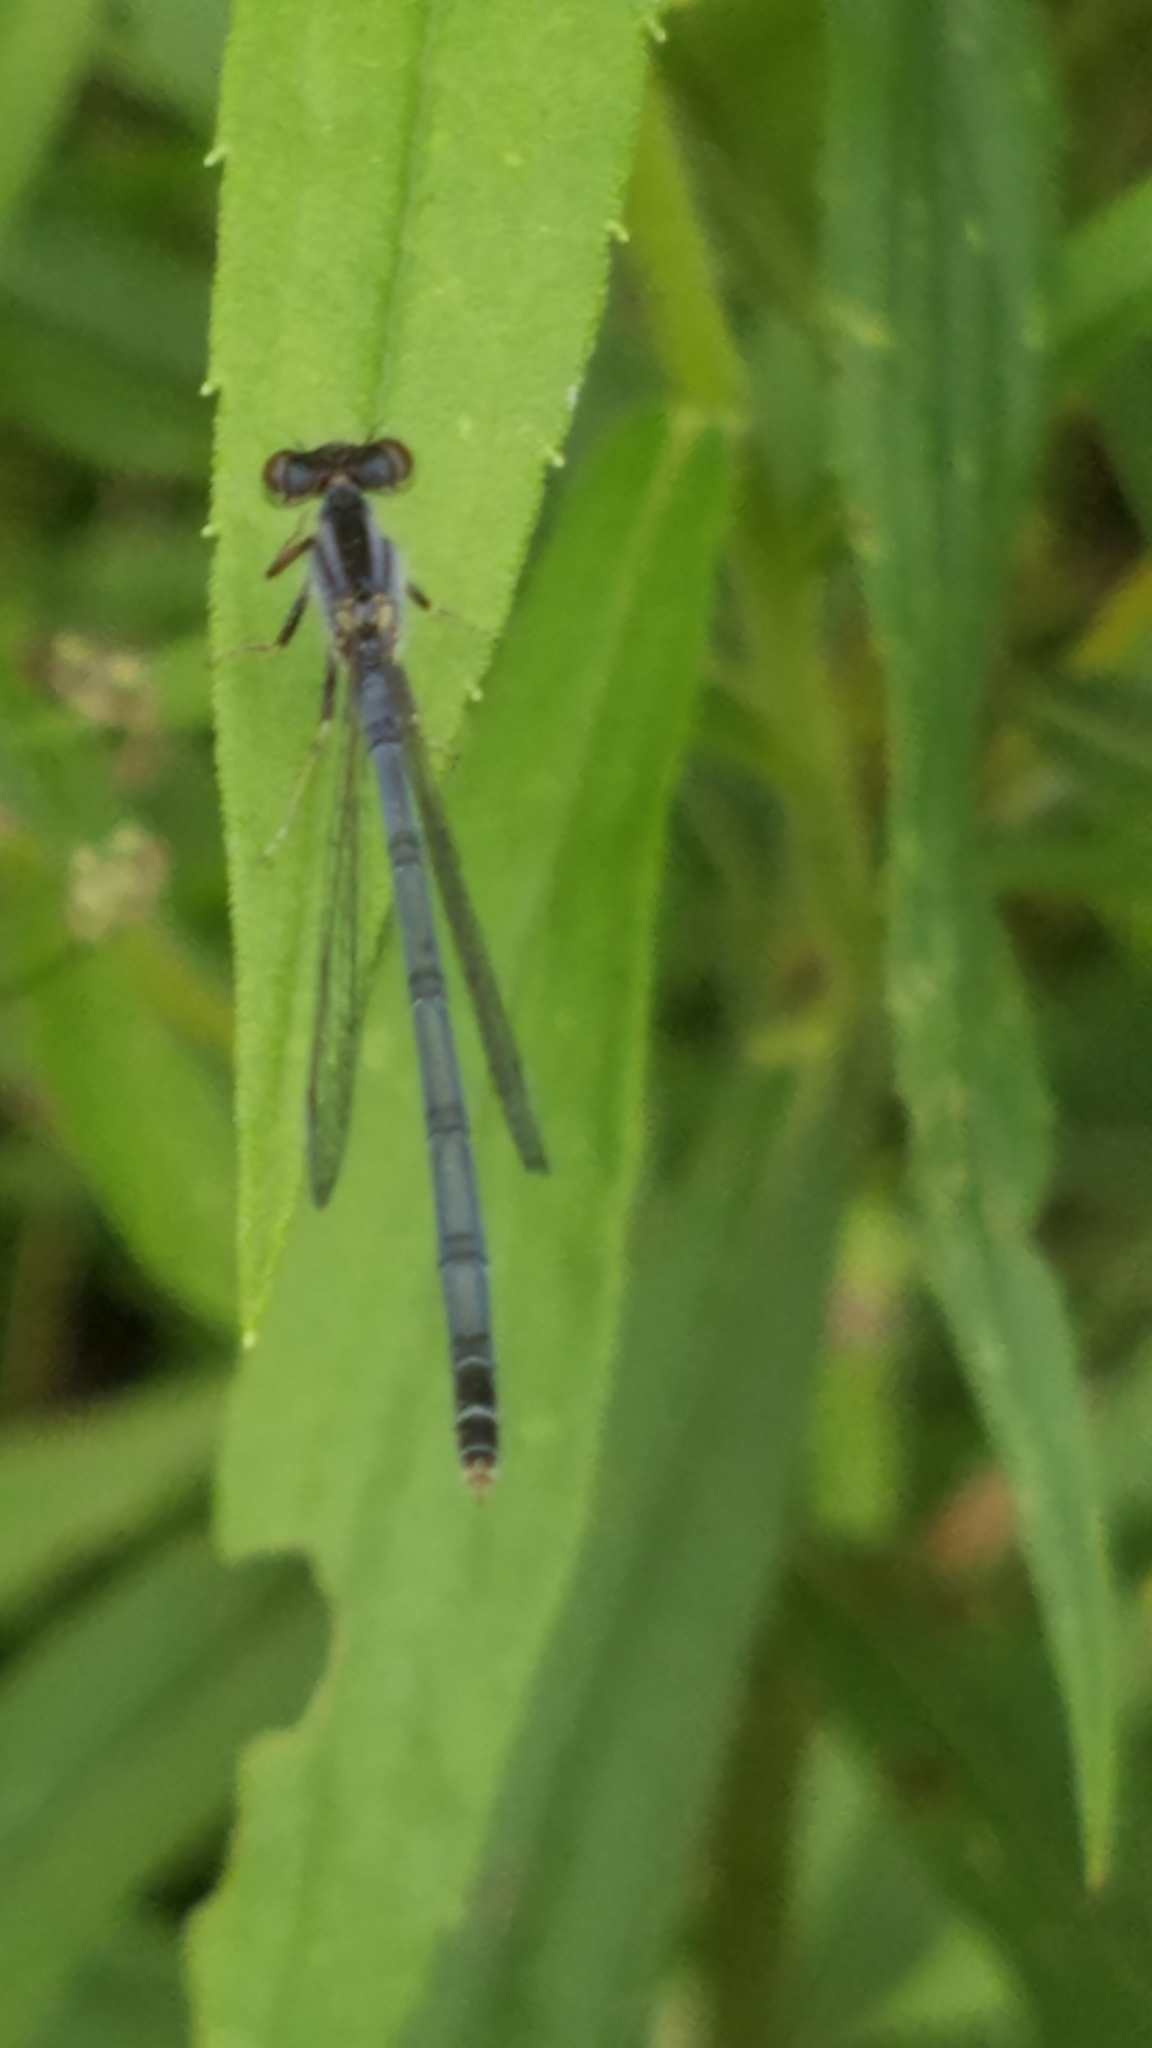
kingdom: Animalia
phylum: Arthropoda
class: Insecta
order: Odonata
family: Coenagrionidae
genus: Ischnura
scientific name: Ischnura verticalis
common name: Eastern forktail
